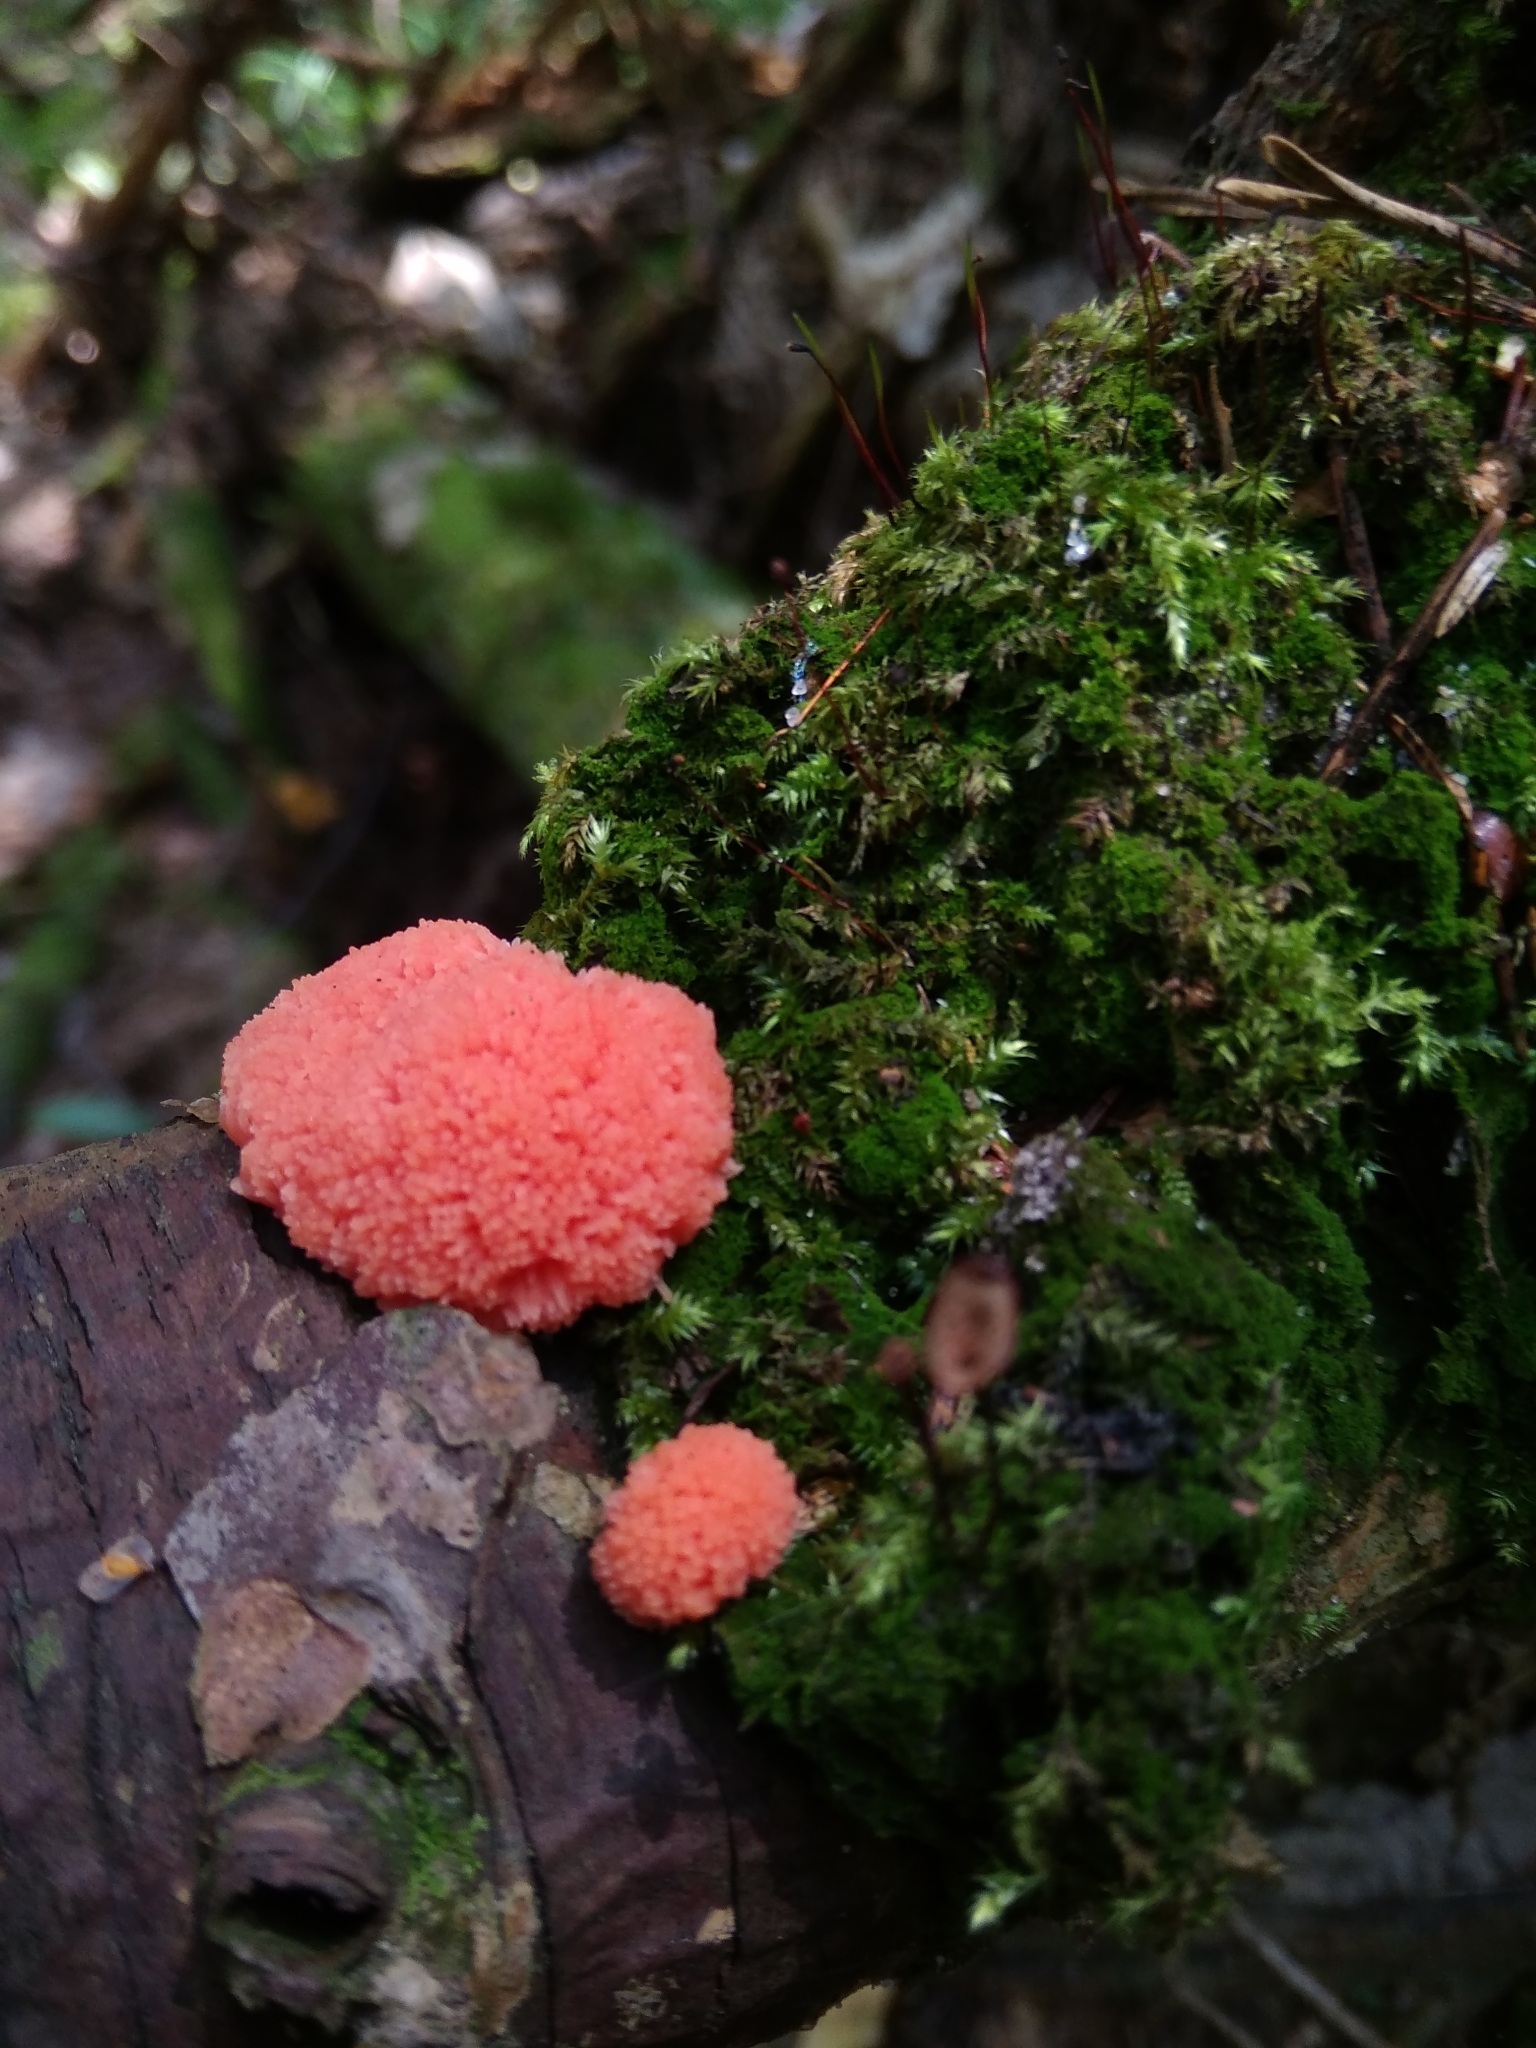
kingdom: Protozoa
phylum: Mycetozoa
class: Myxomycetes
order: Cribrariales
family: Tubiferaceae
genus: Tubifera
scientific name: Tubifera ferruginosa
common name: Red raspberry slime mold
